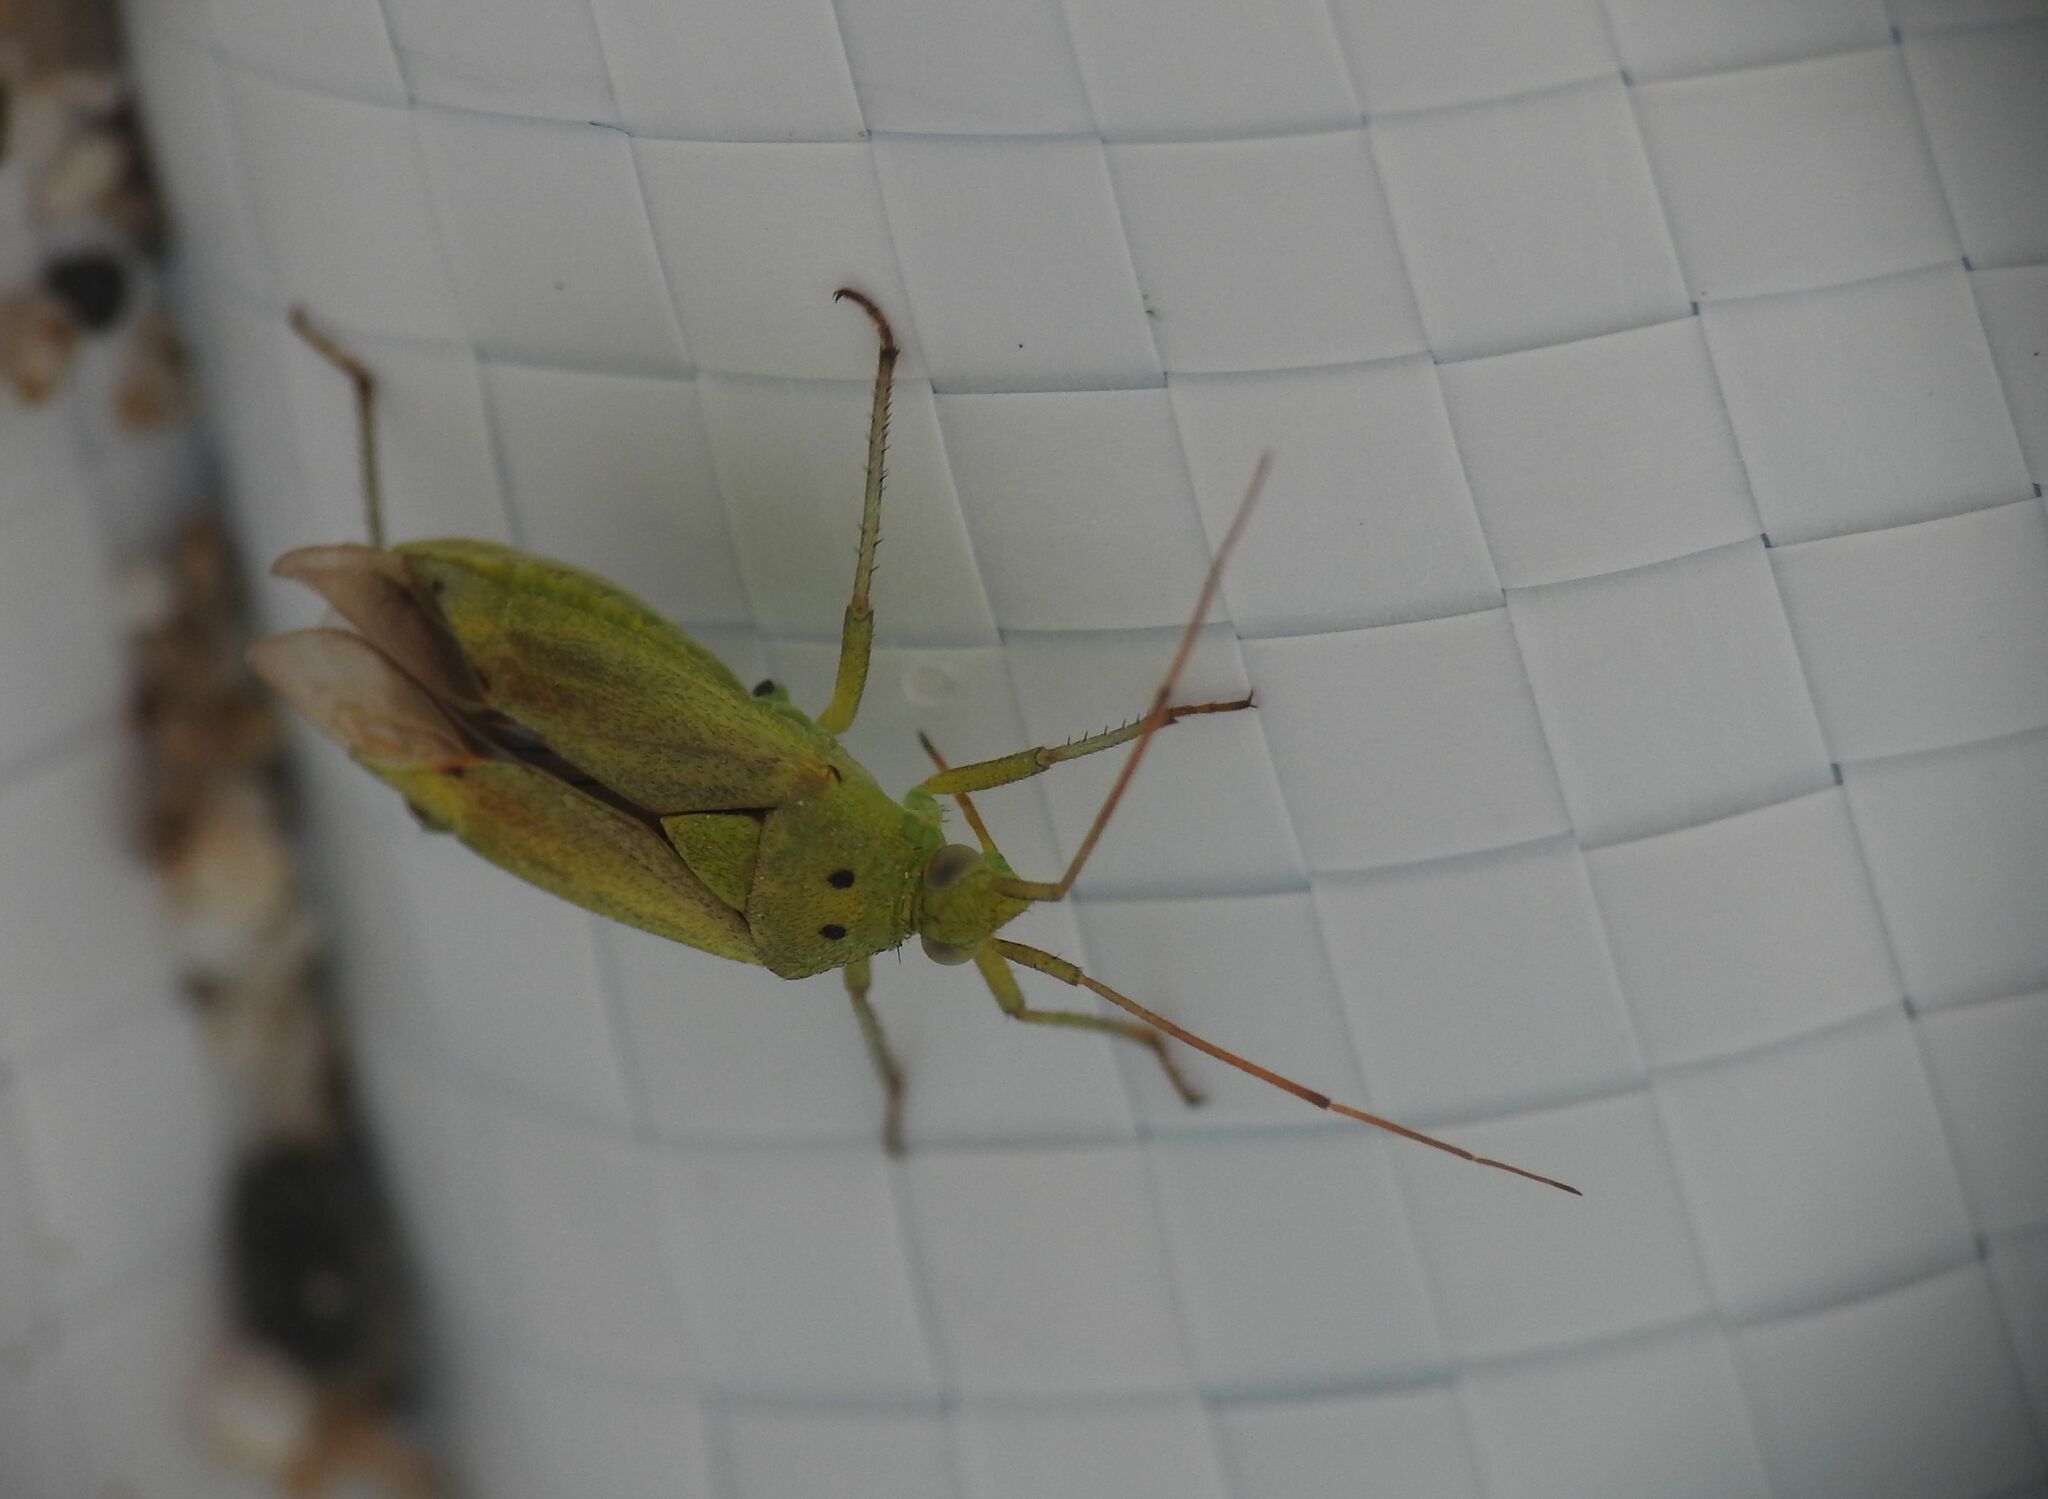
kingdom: Animalia
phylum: Arthropoda
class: Insecta
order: Hemiptera
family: Miridae
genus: Closterotomus
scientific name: Closterotomus norvegicus
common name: Plant bug
